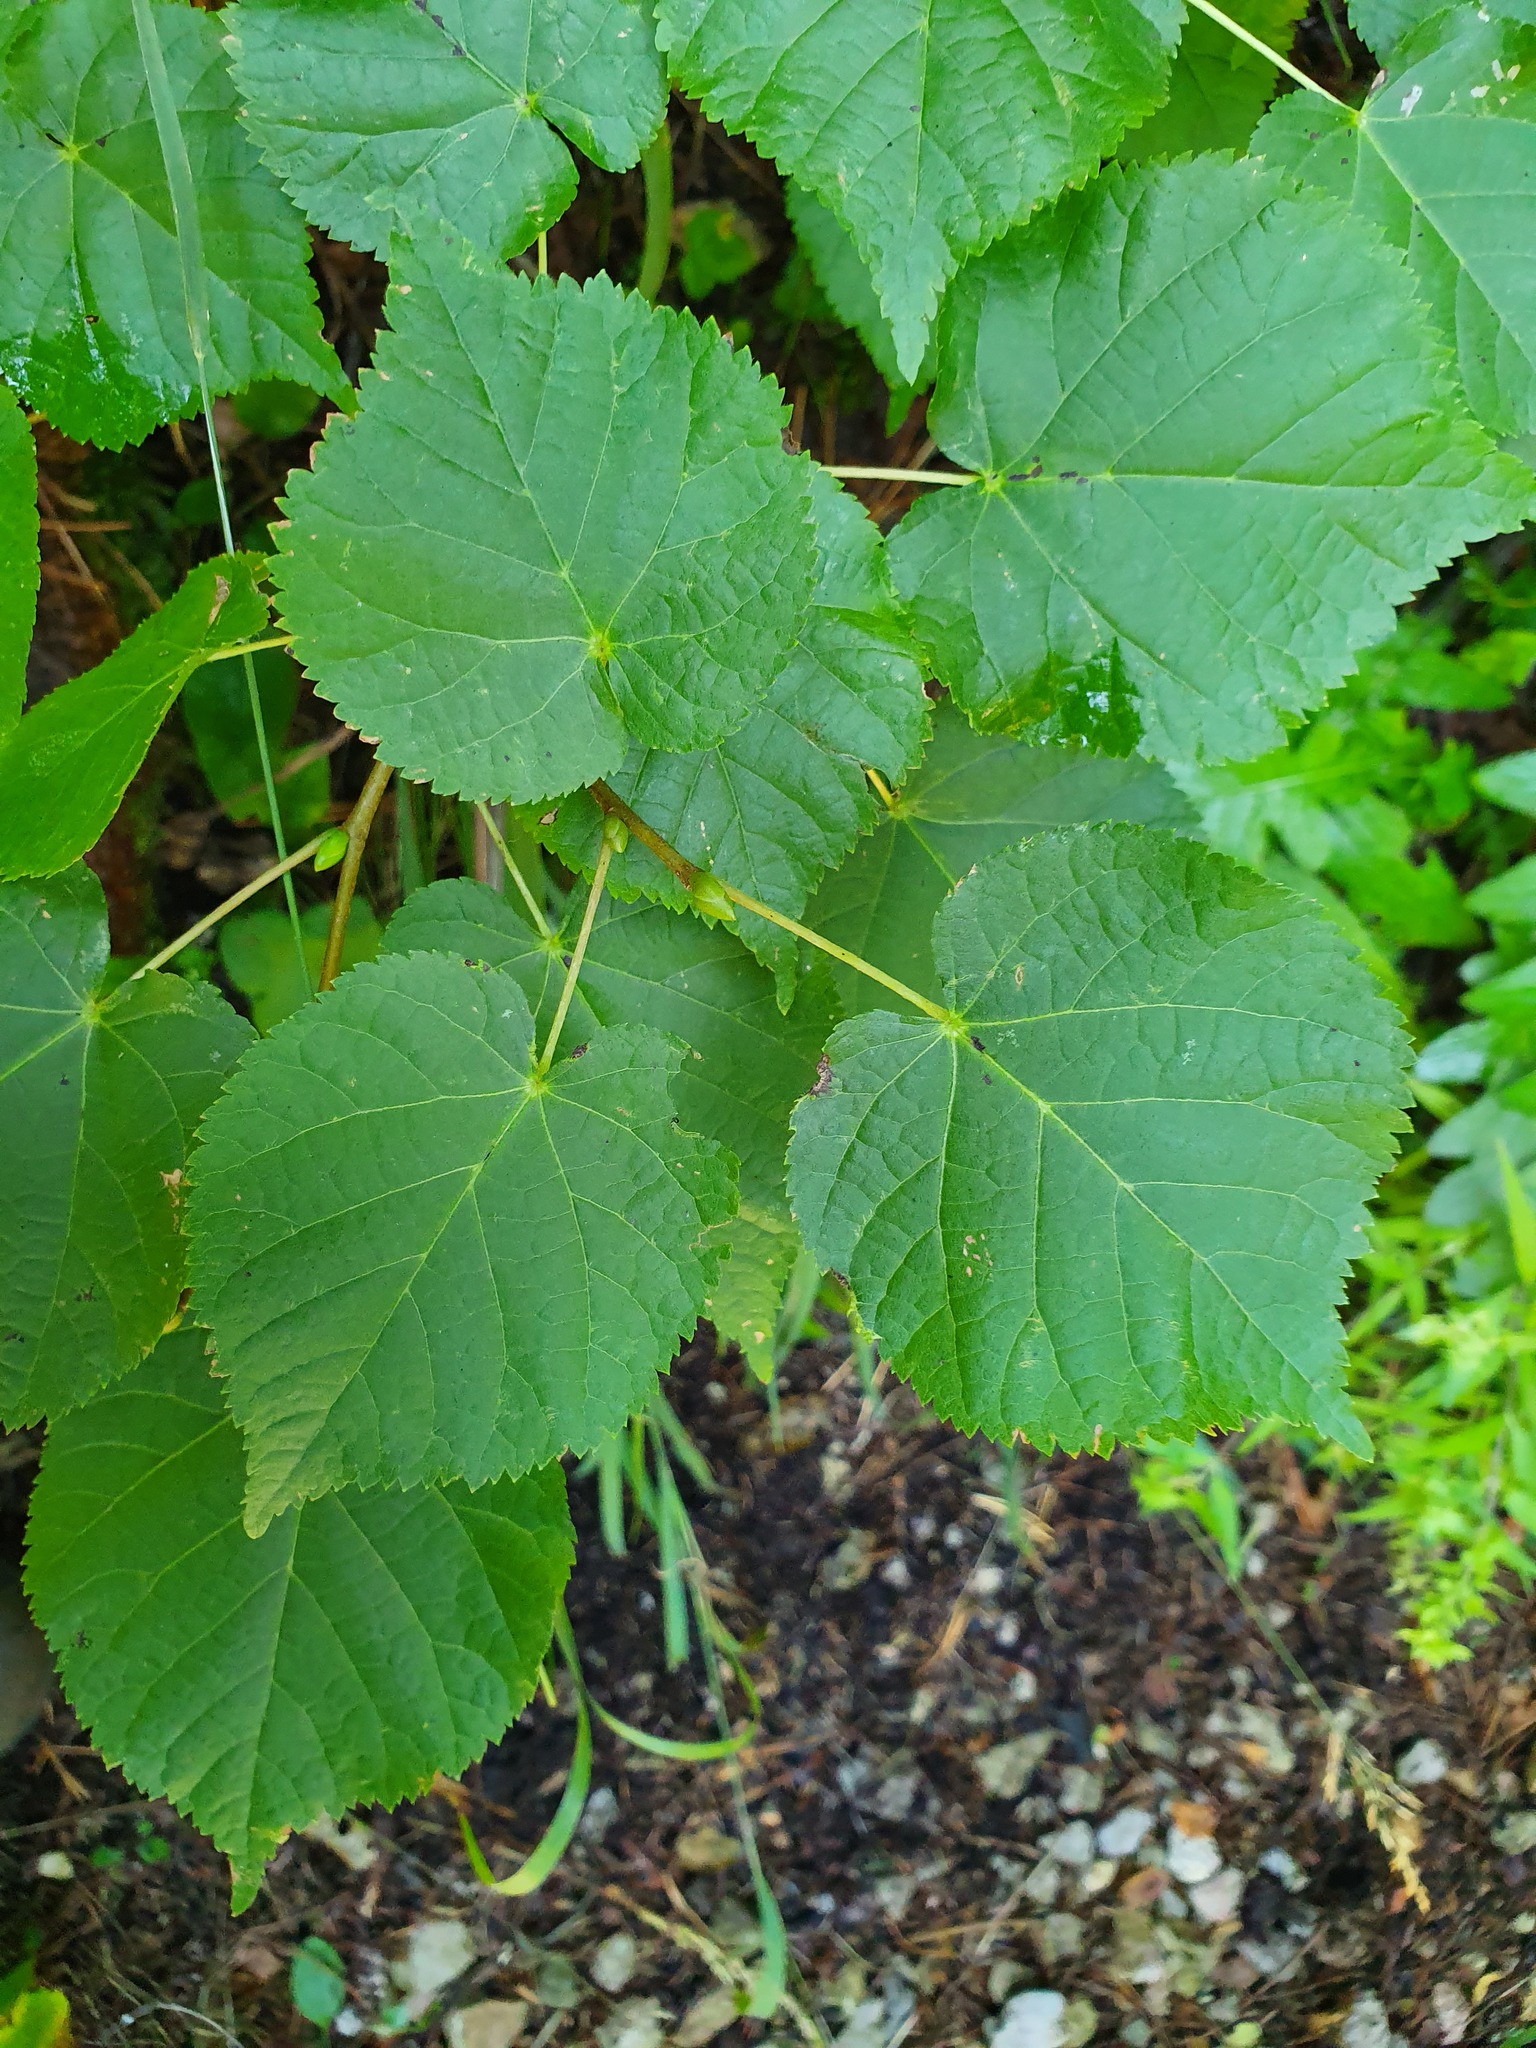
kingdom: Plantae
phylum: Tracheophyta
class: Magnoliopsida
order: Malvales
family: Malvaceae
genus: Tilia
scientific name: Tilia cordata
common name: Small-leaved lime
